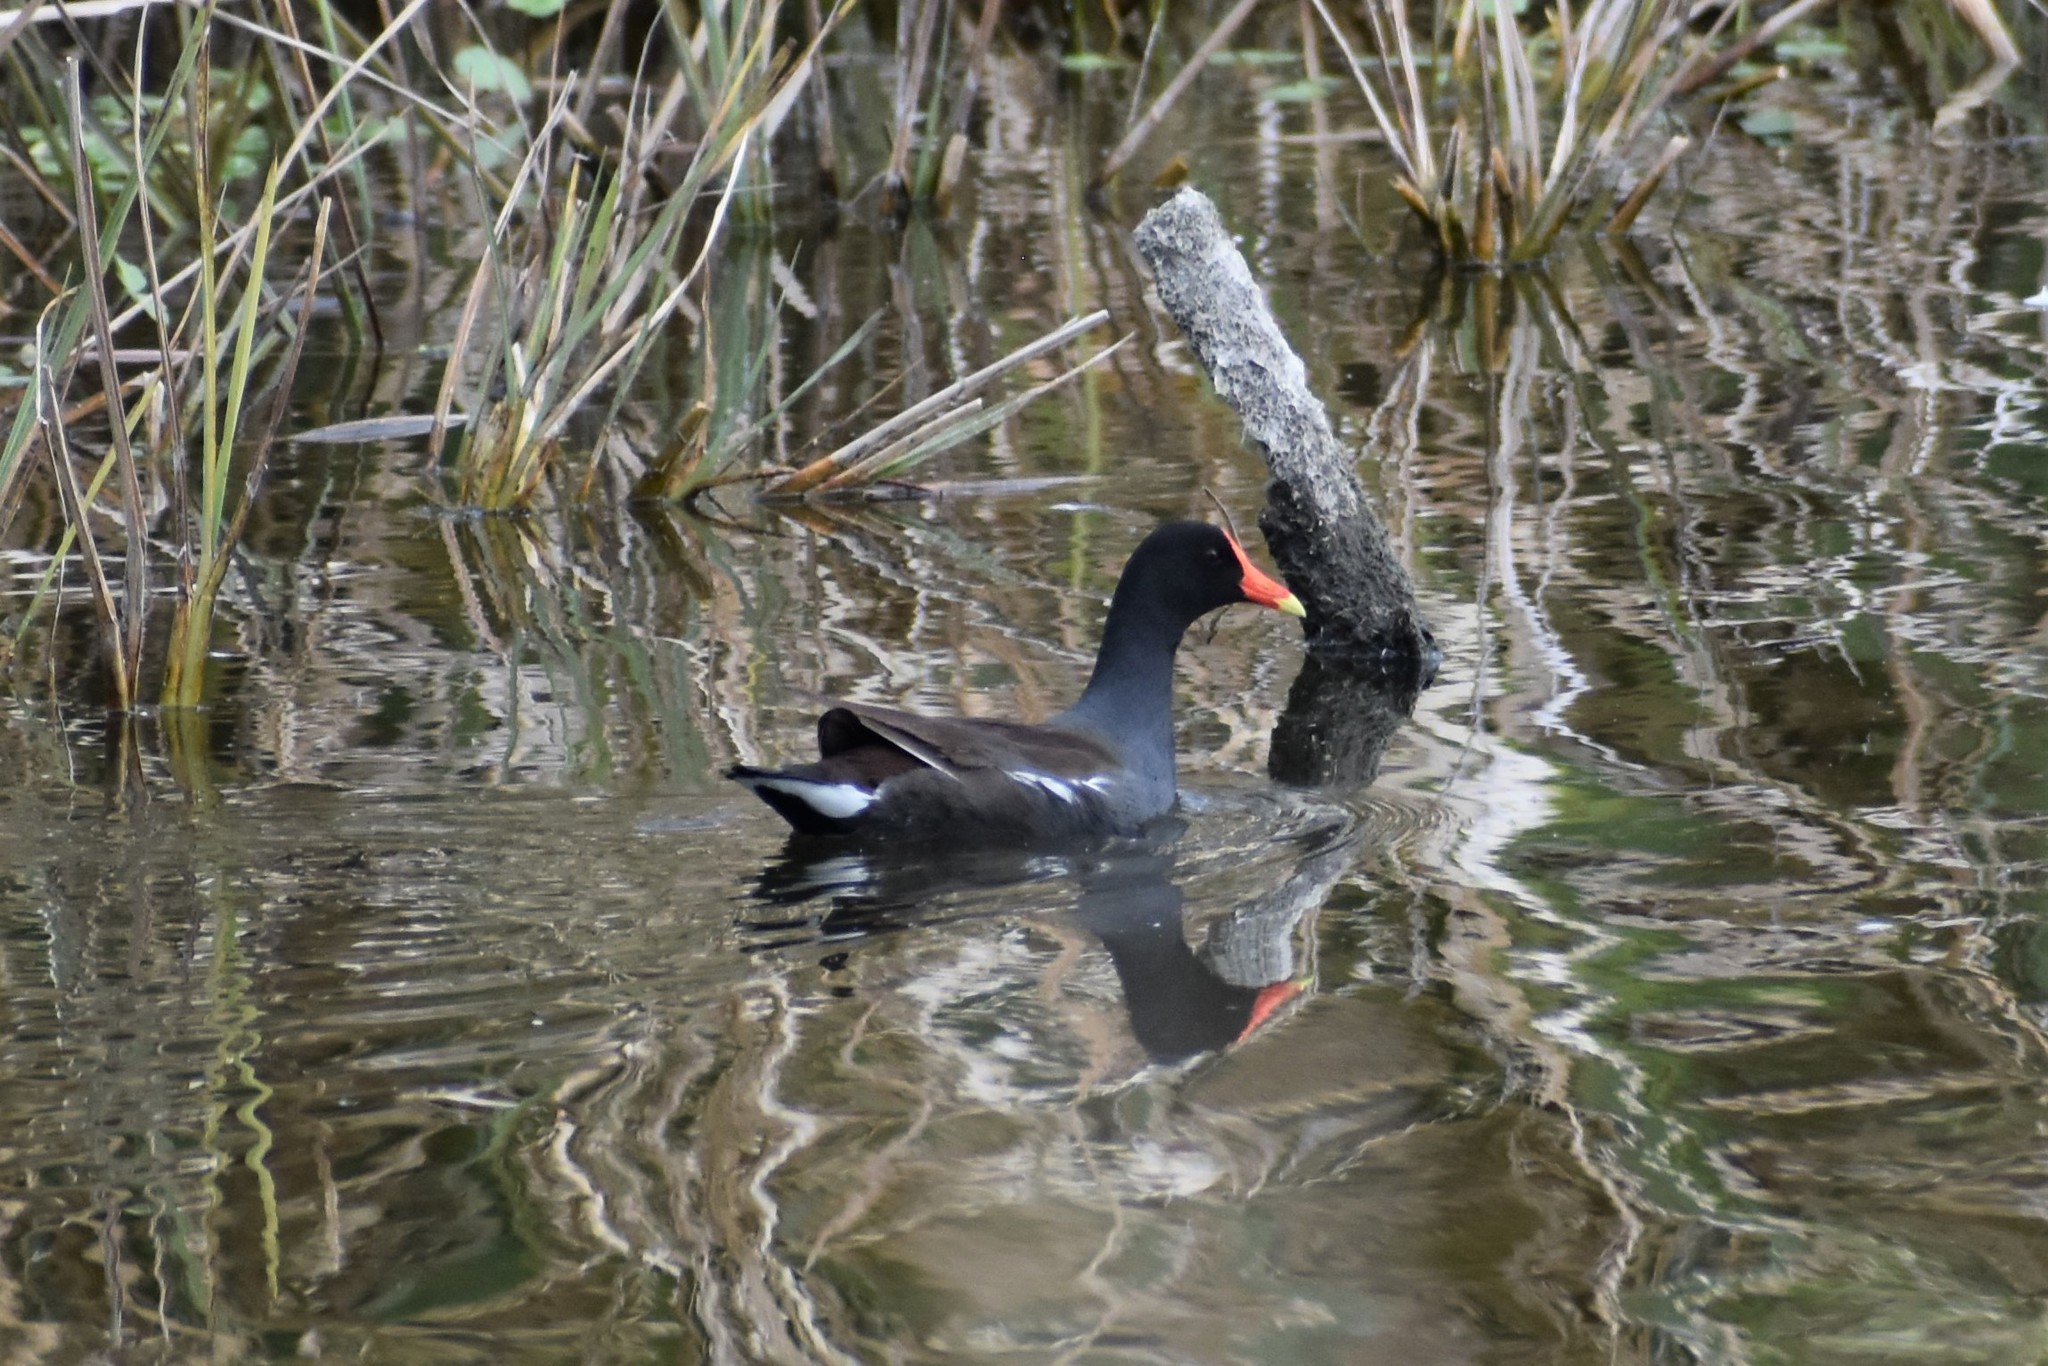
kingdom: Animalia
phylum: Chordata
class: Aves
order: Gruiformes
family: Rallidae
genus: Gallinula
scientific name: Gallinula chloropus
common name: Common moorhen
